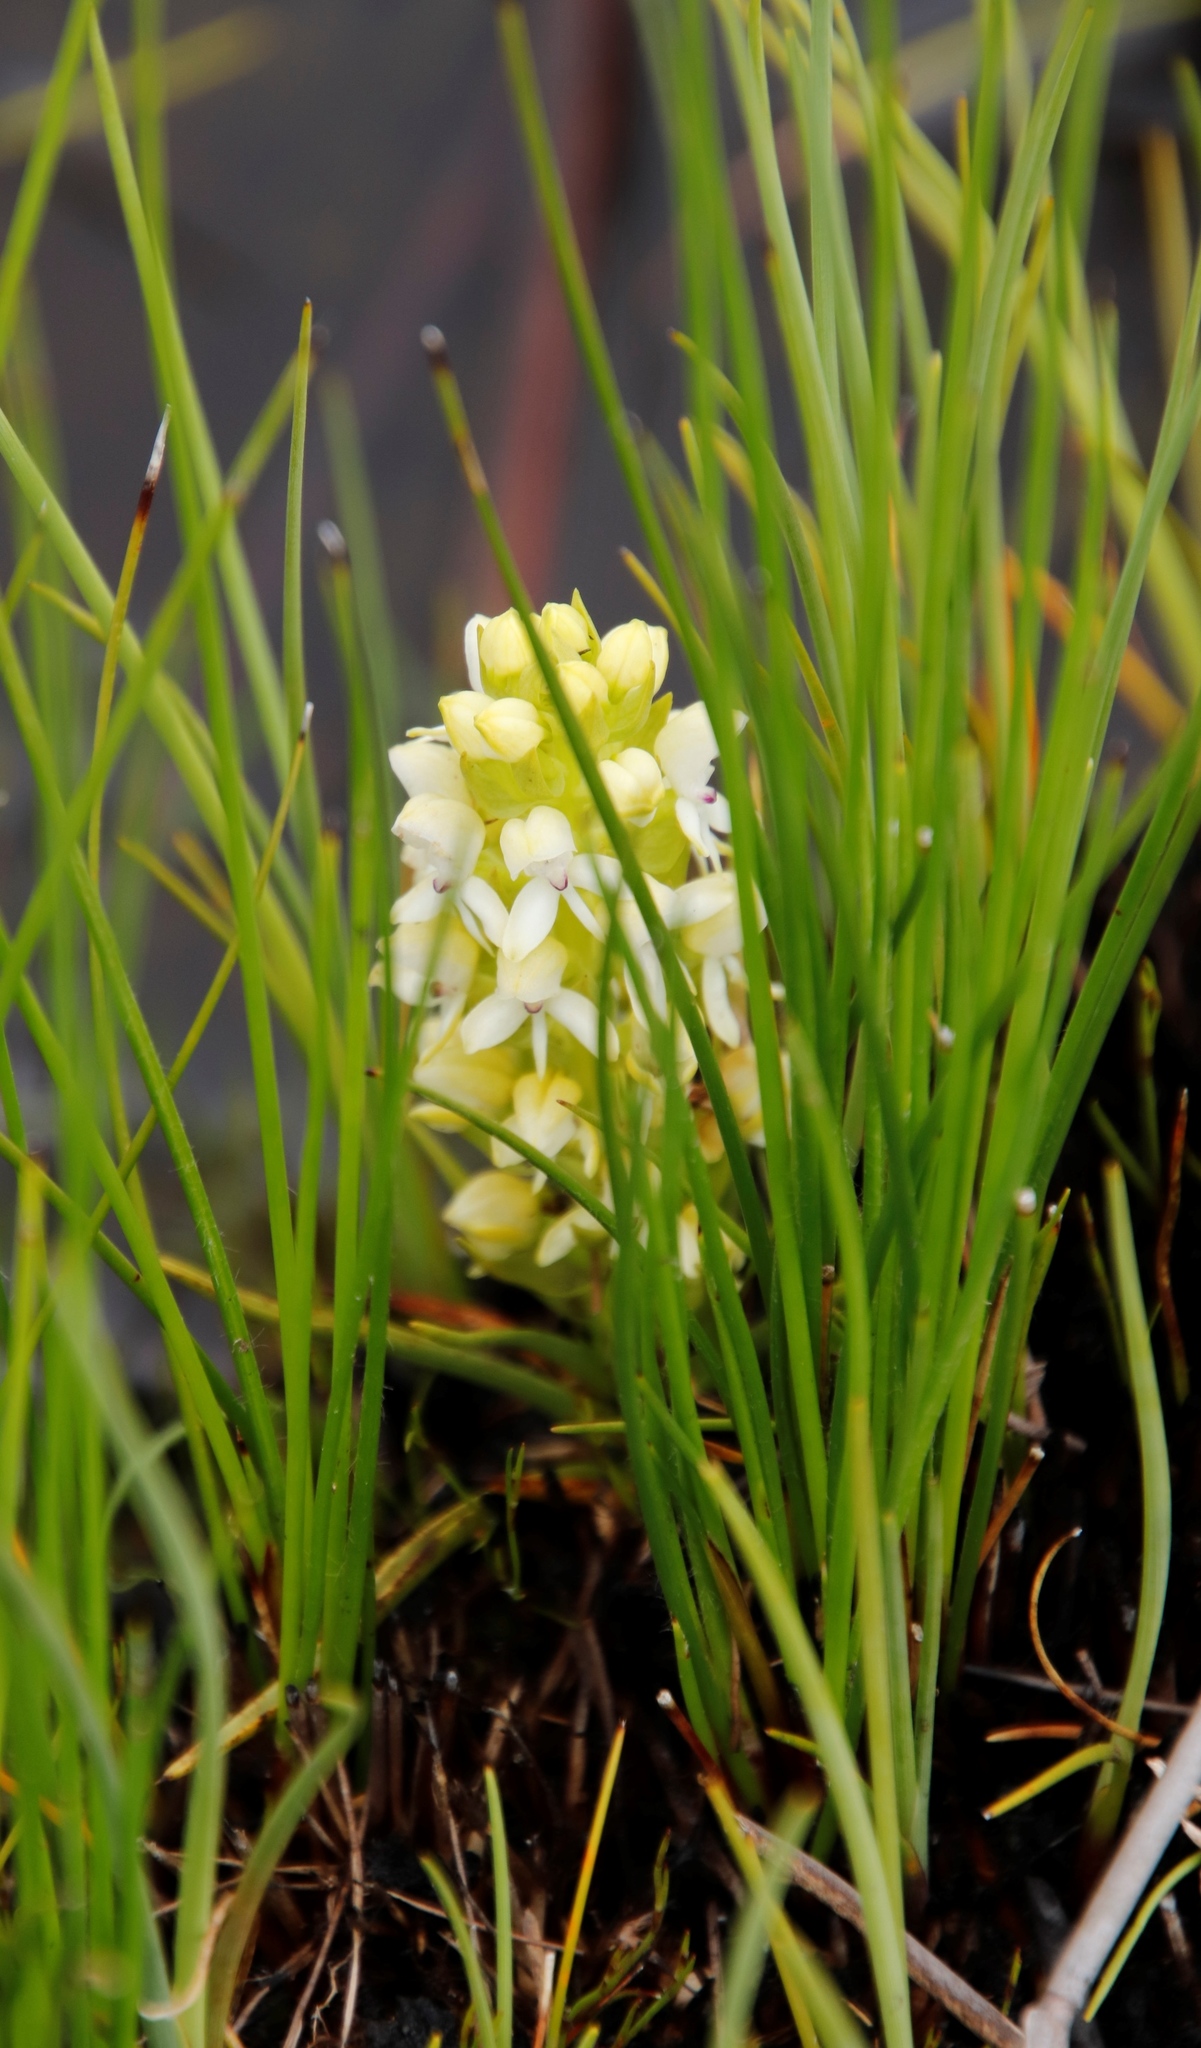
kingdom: Plantae
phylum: Tracheophyta
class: Liliopsida
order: Asparagales
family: Orchidaceae
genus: Disa
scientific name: Disa albomagentea
